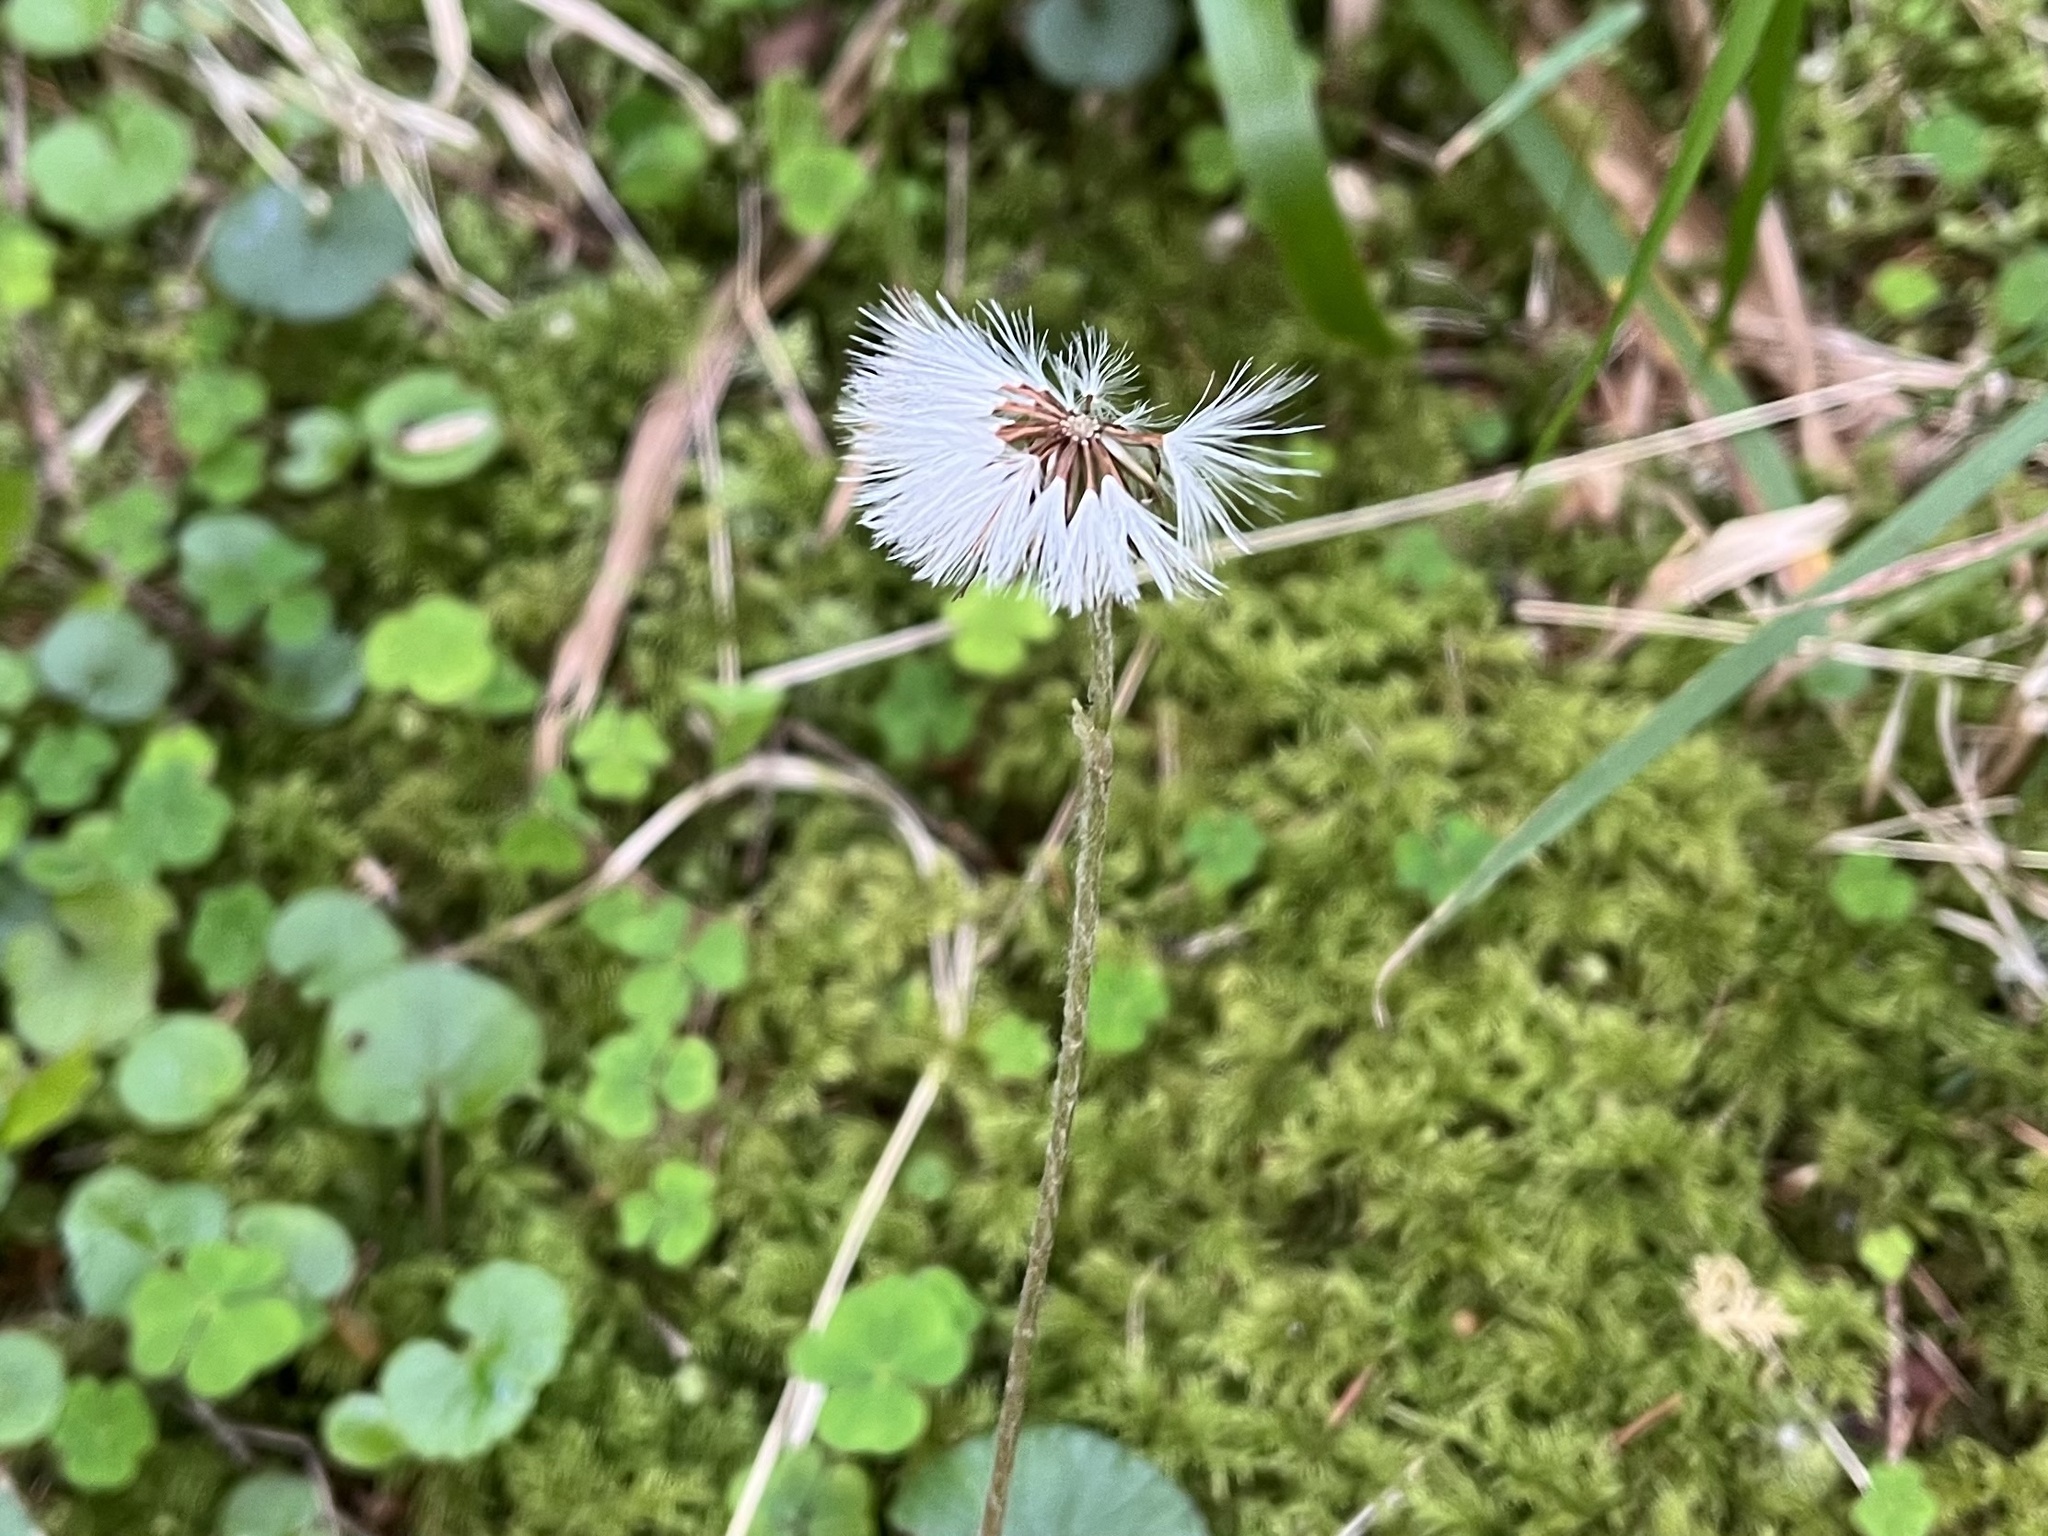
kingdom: Plantae
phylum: Tracheophyta
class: Magnoliopsida
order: Asterales
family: Asteraceae
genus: Homogyne
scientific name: Homogyne alpina
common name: Purple colt's-foot
